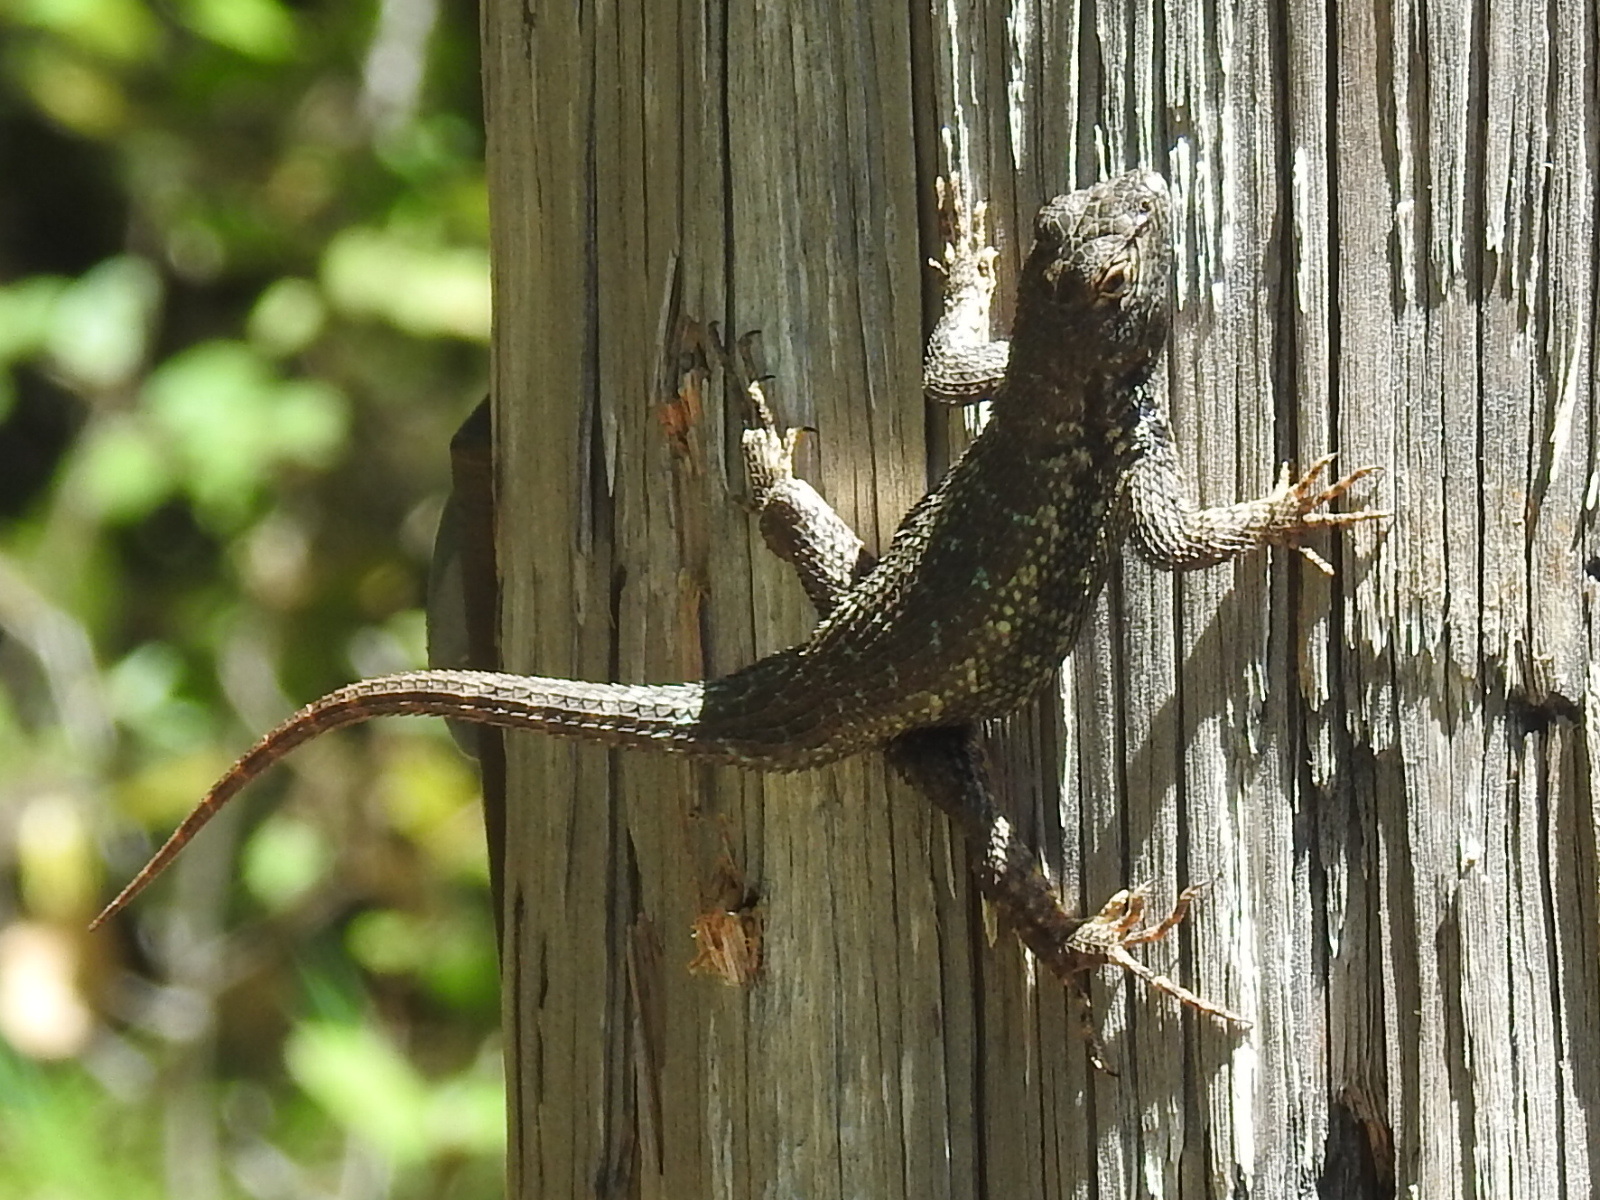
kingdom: Animalia
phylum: Chordata
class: Squamata
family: Phrynosomatidae
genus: Sceloporus
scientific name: Sceloporus occidentalis
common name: Western fence lizard
